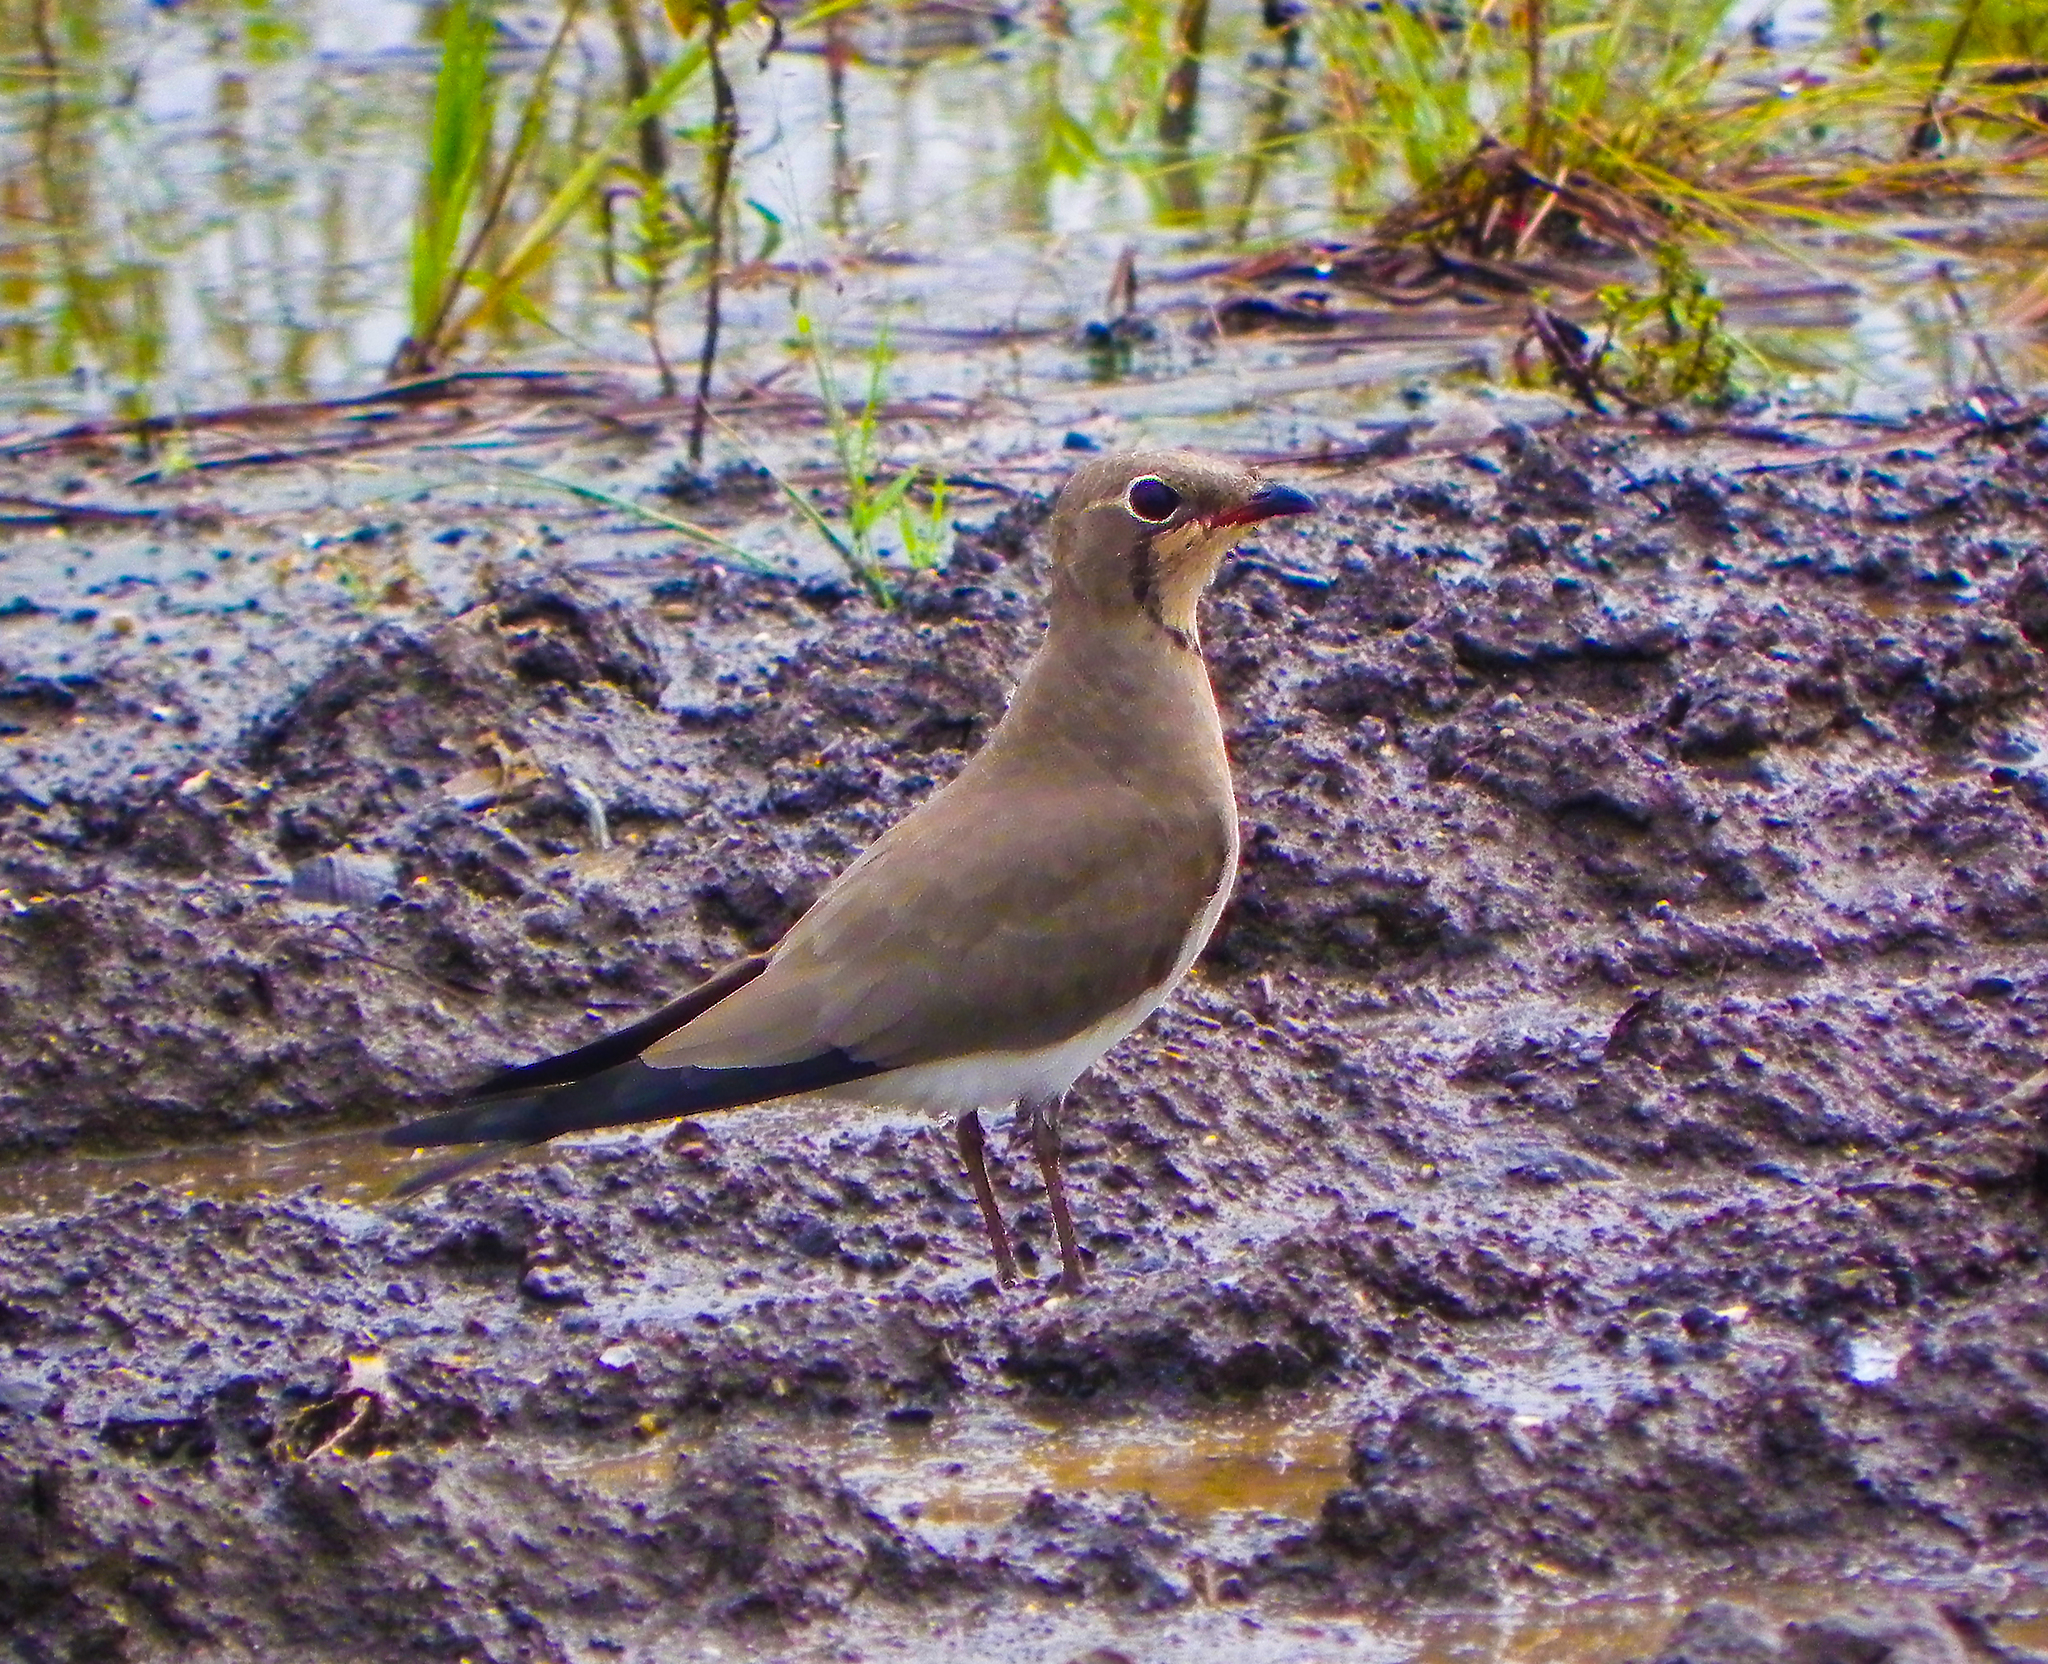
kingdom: Animalia
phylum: Chordata
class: Aves
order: Charadriiformes
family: Glareolidae
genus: Glareola
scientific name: Glareola pratincola
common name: Collared pratincole
